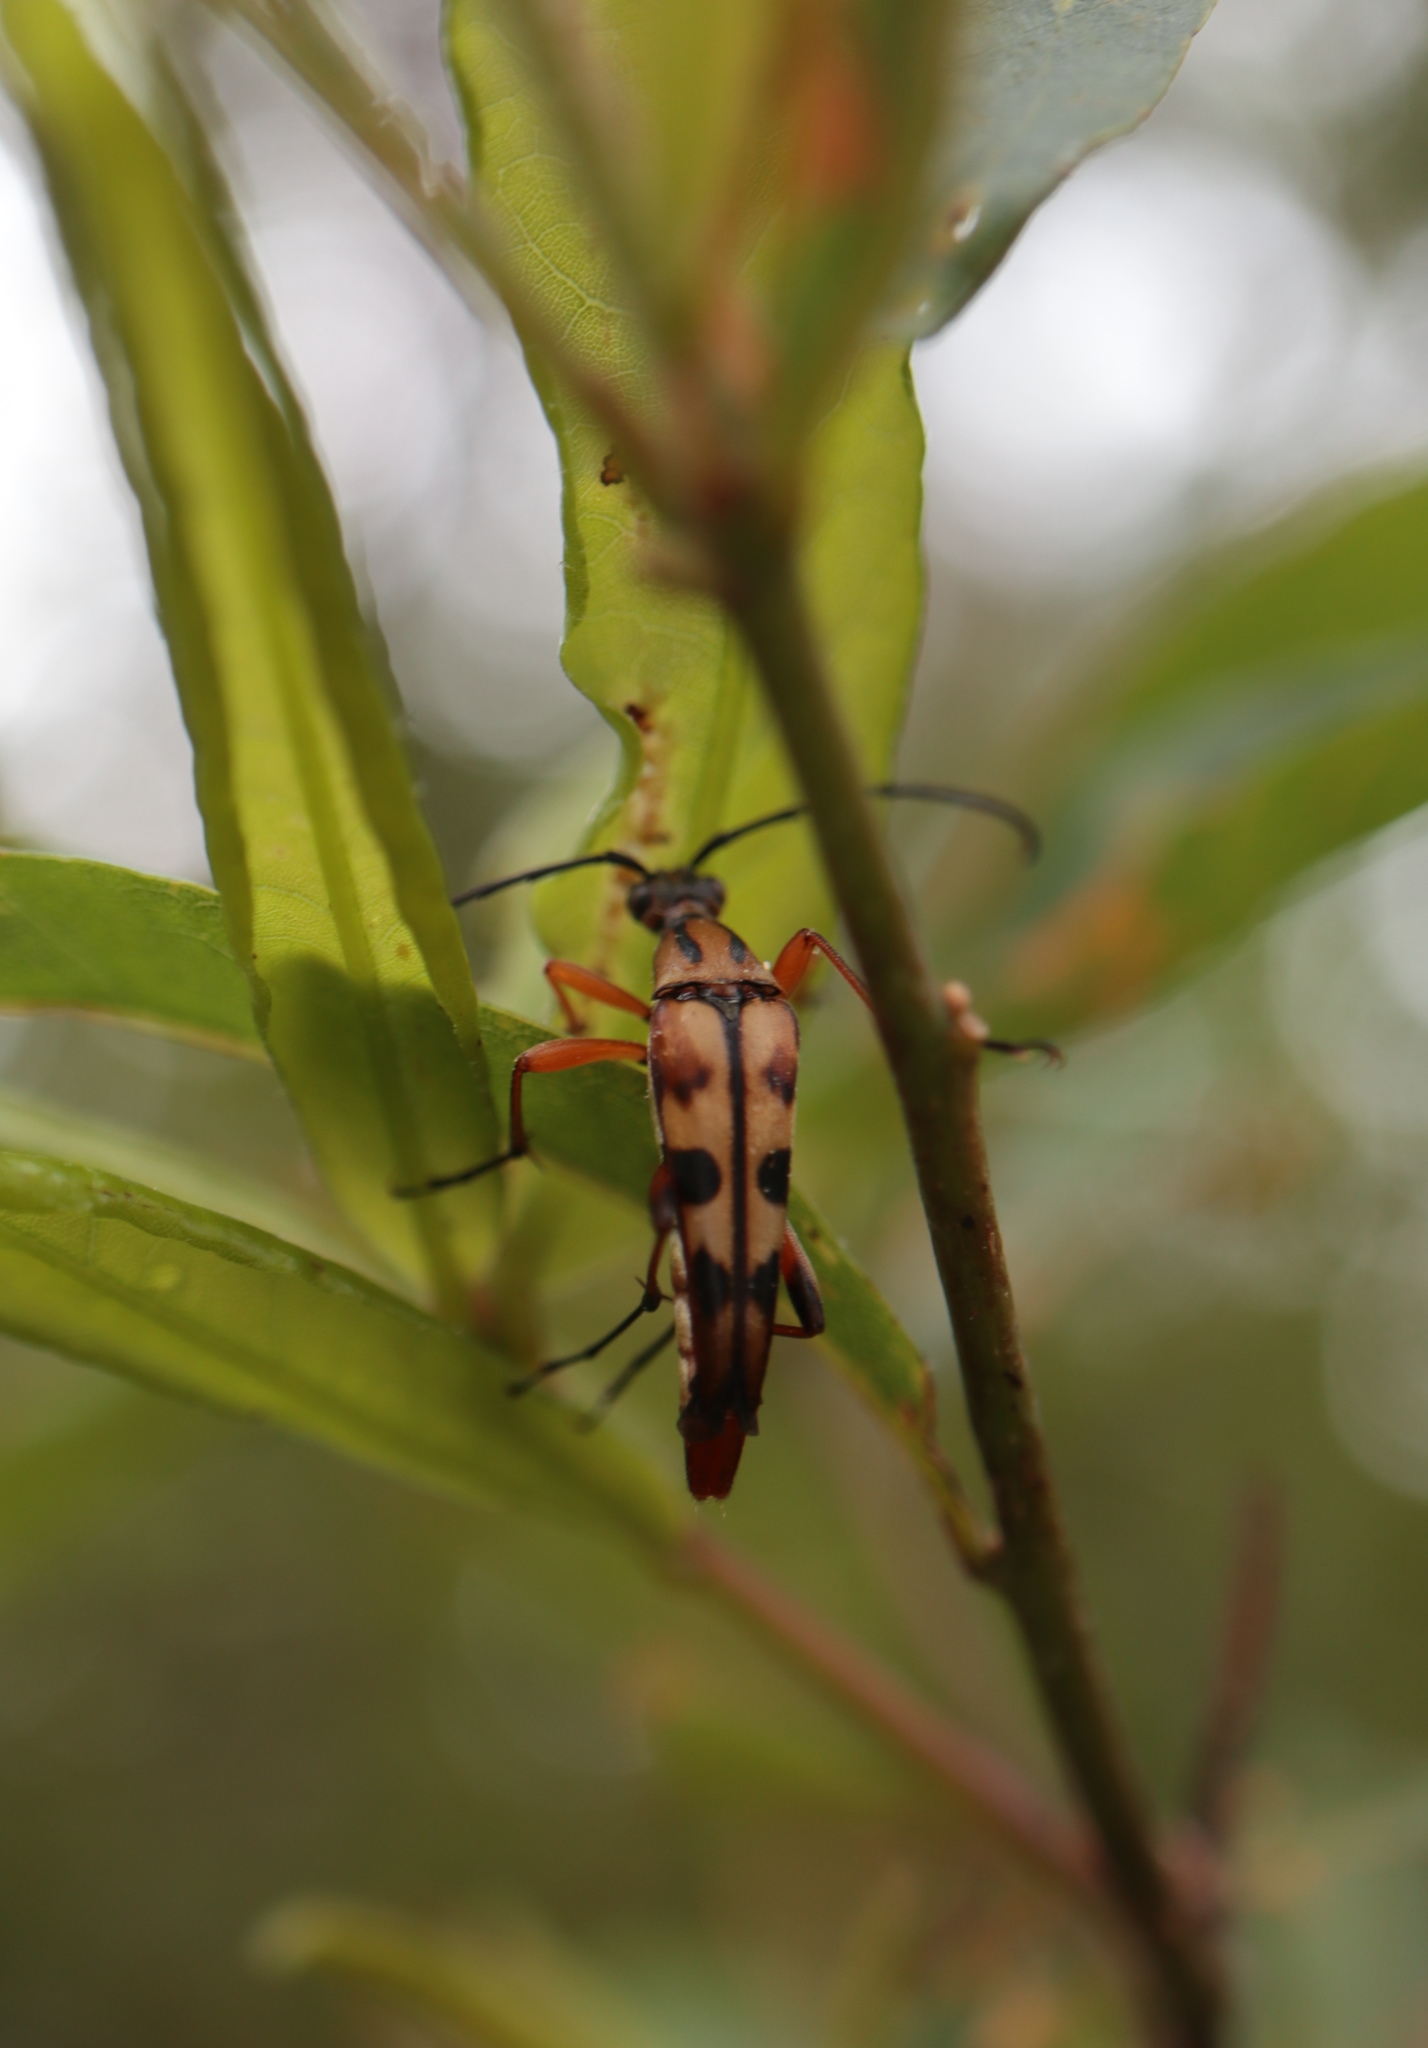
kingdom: Animalia
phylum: Arthropoda
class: Insecta
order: Coleoptera
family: Cerambycidae
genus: Strangalia
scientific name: Strangalia famelica
